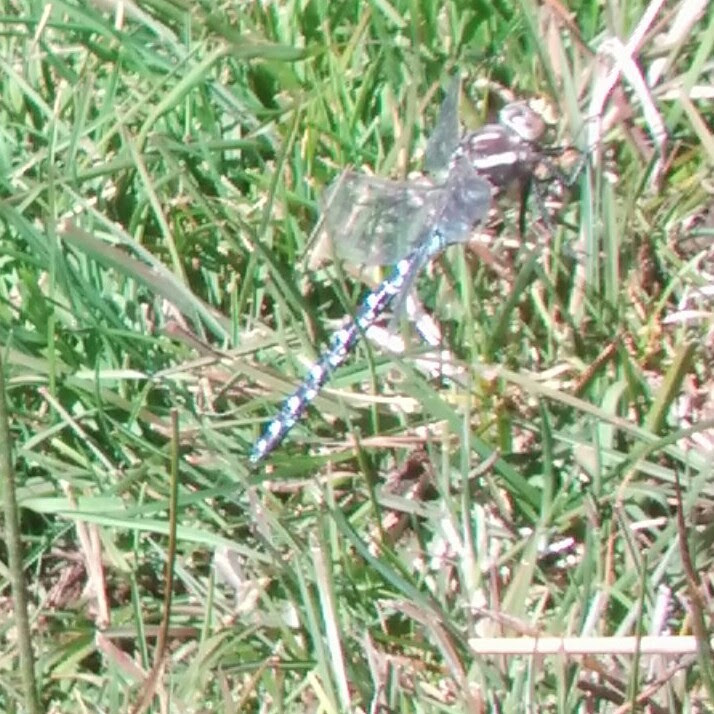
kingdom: Animalia
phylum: Arthropoda
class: Insecta
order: Odonata
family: Aeshnidae
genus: Aeshna
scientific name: Aeshna juncea
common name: Moorland hawker
